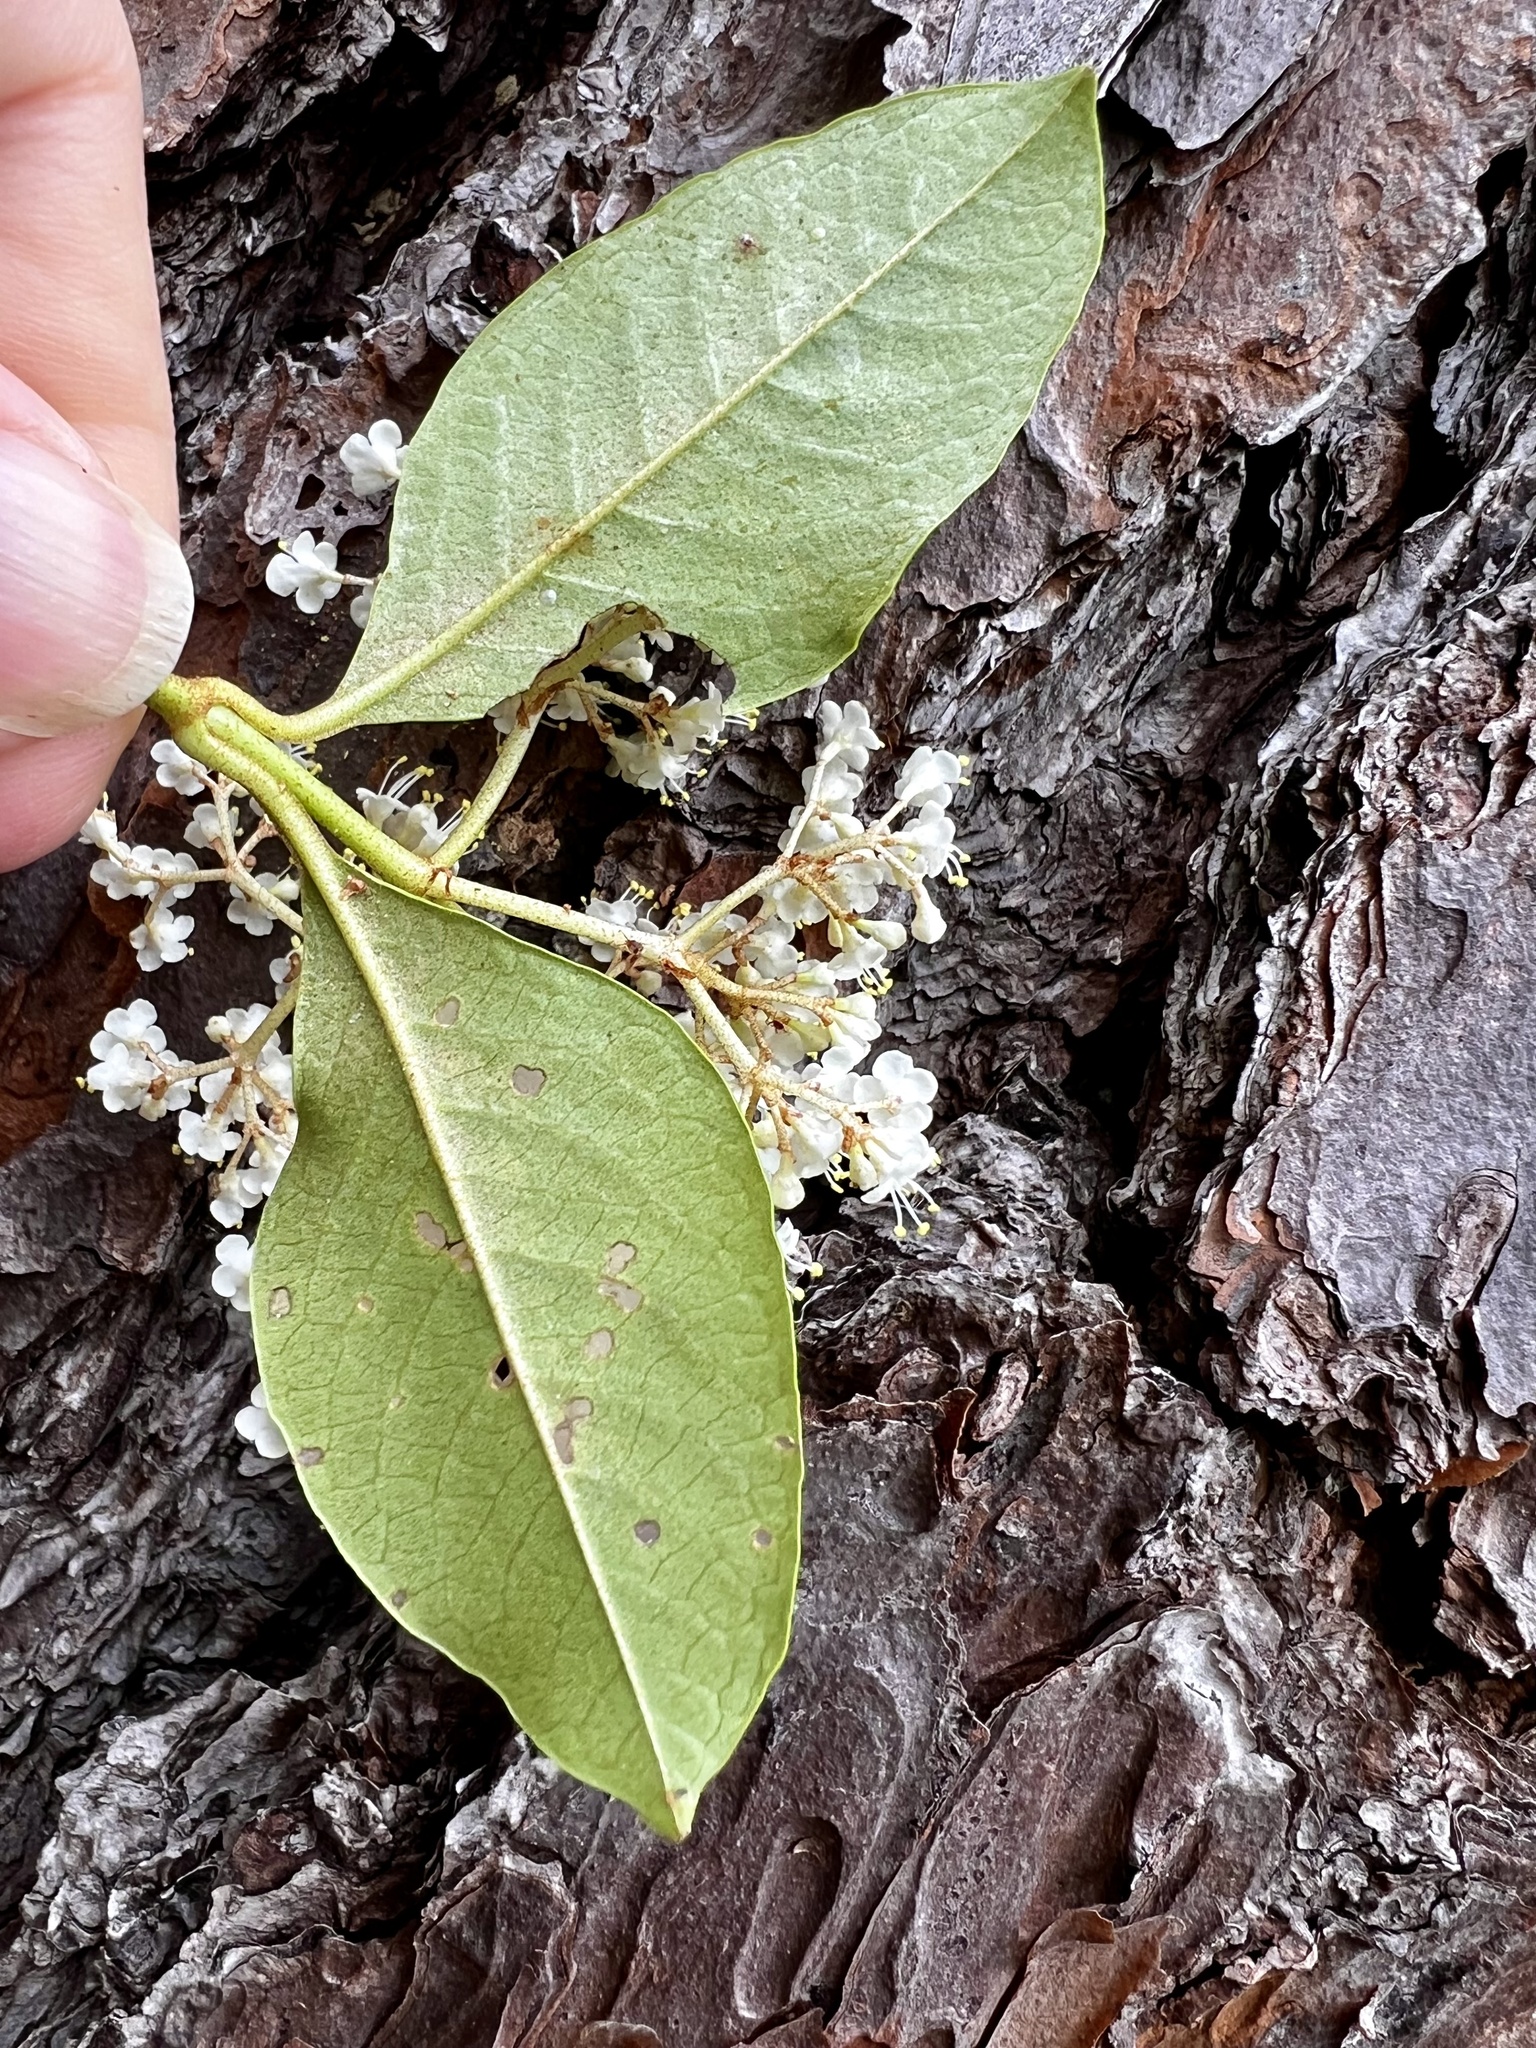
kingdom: Plantae
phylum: Tracheophyta
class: Magnoliopsida
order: Dipsacales
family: Viburnaceae
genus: Viburnum
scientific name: Viburnum nudum
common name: Possum haw
